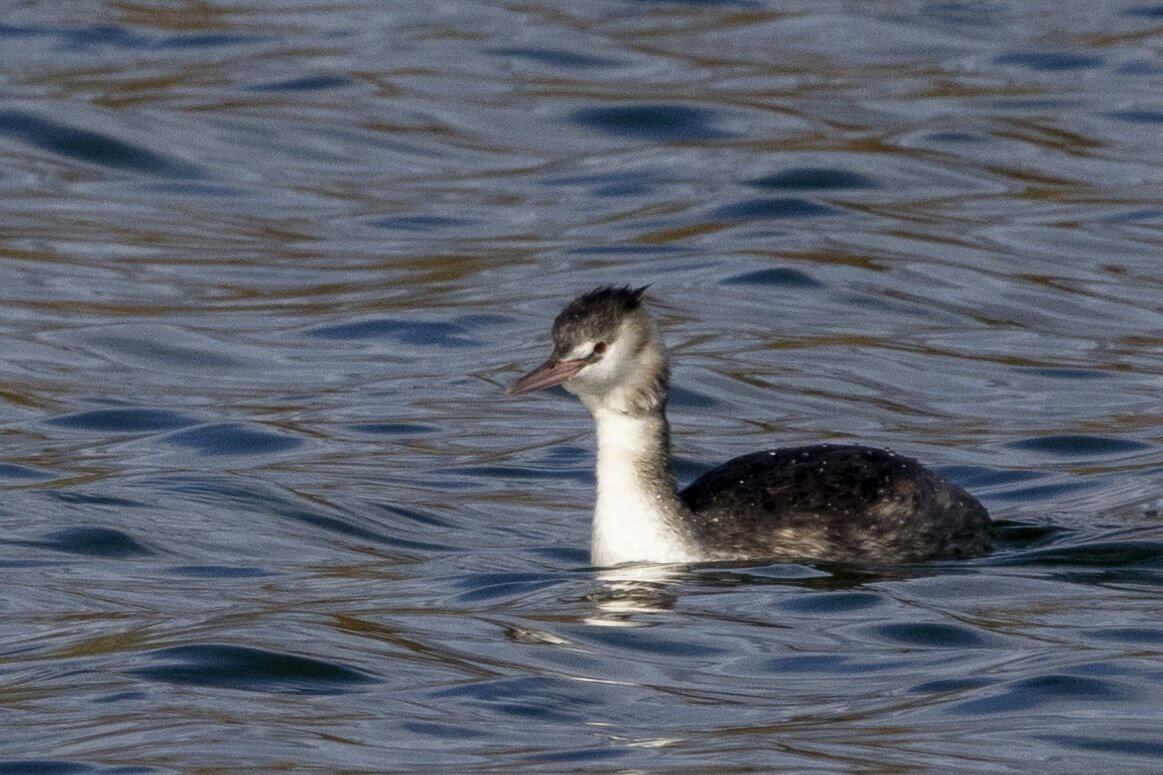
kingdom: Animalia
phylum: Chordata
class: Aves
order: Podicipediformes
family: Podicipedidae
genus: Podiceps
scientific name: Podiceps cristatus
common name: Great crested grebe
